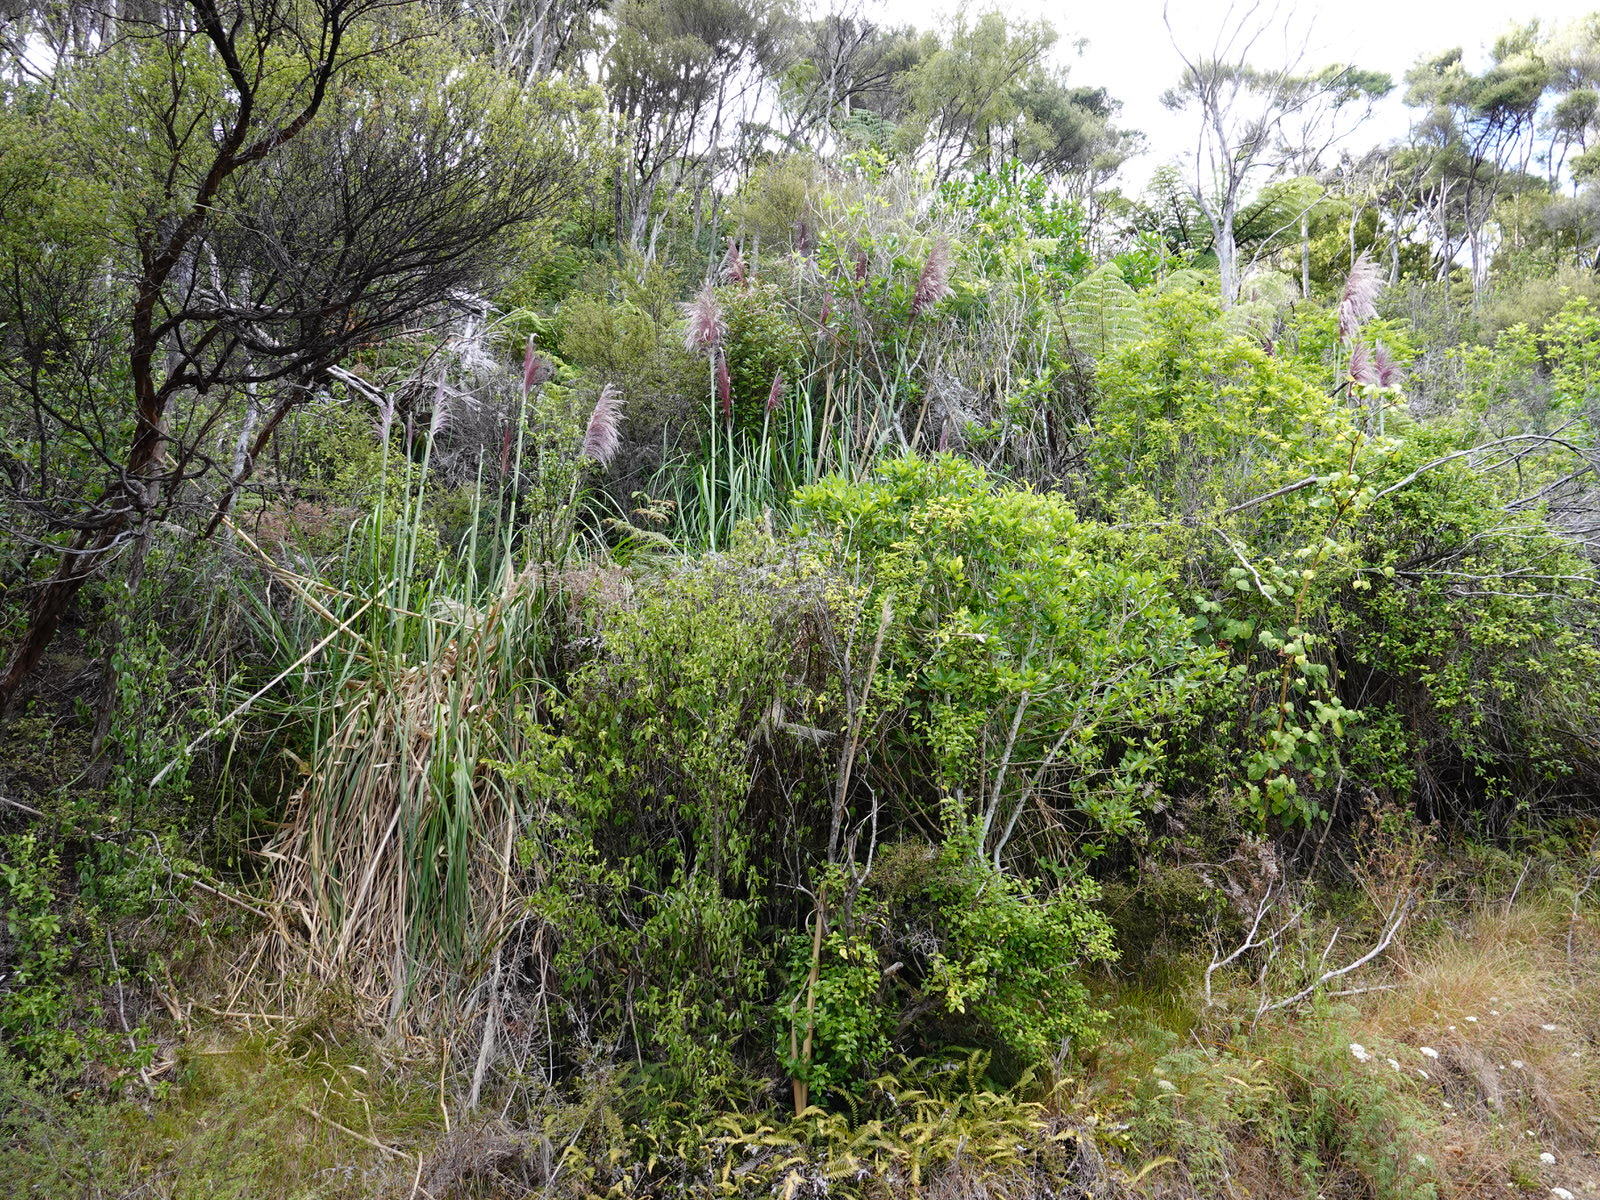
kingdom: Plantae
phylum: Tracheophyta
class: Liliopsida
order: Poales
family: Poaceae
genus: Cortaderia
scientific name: Cortaderia jubata
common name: Purple pampas grass
